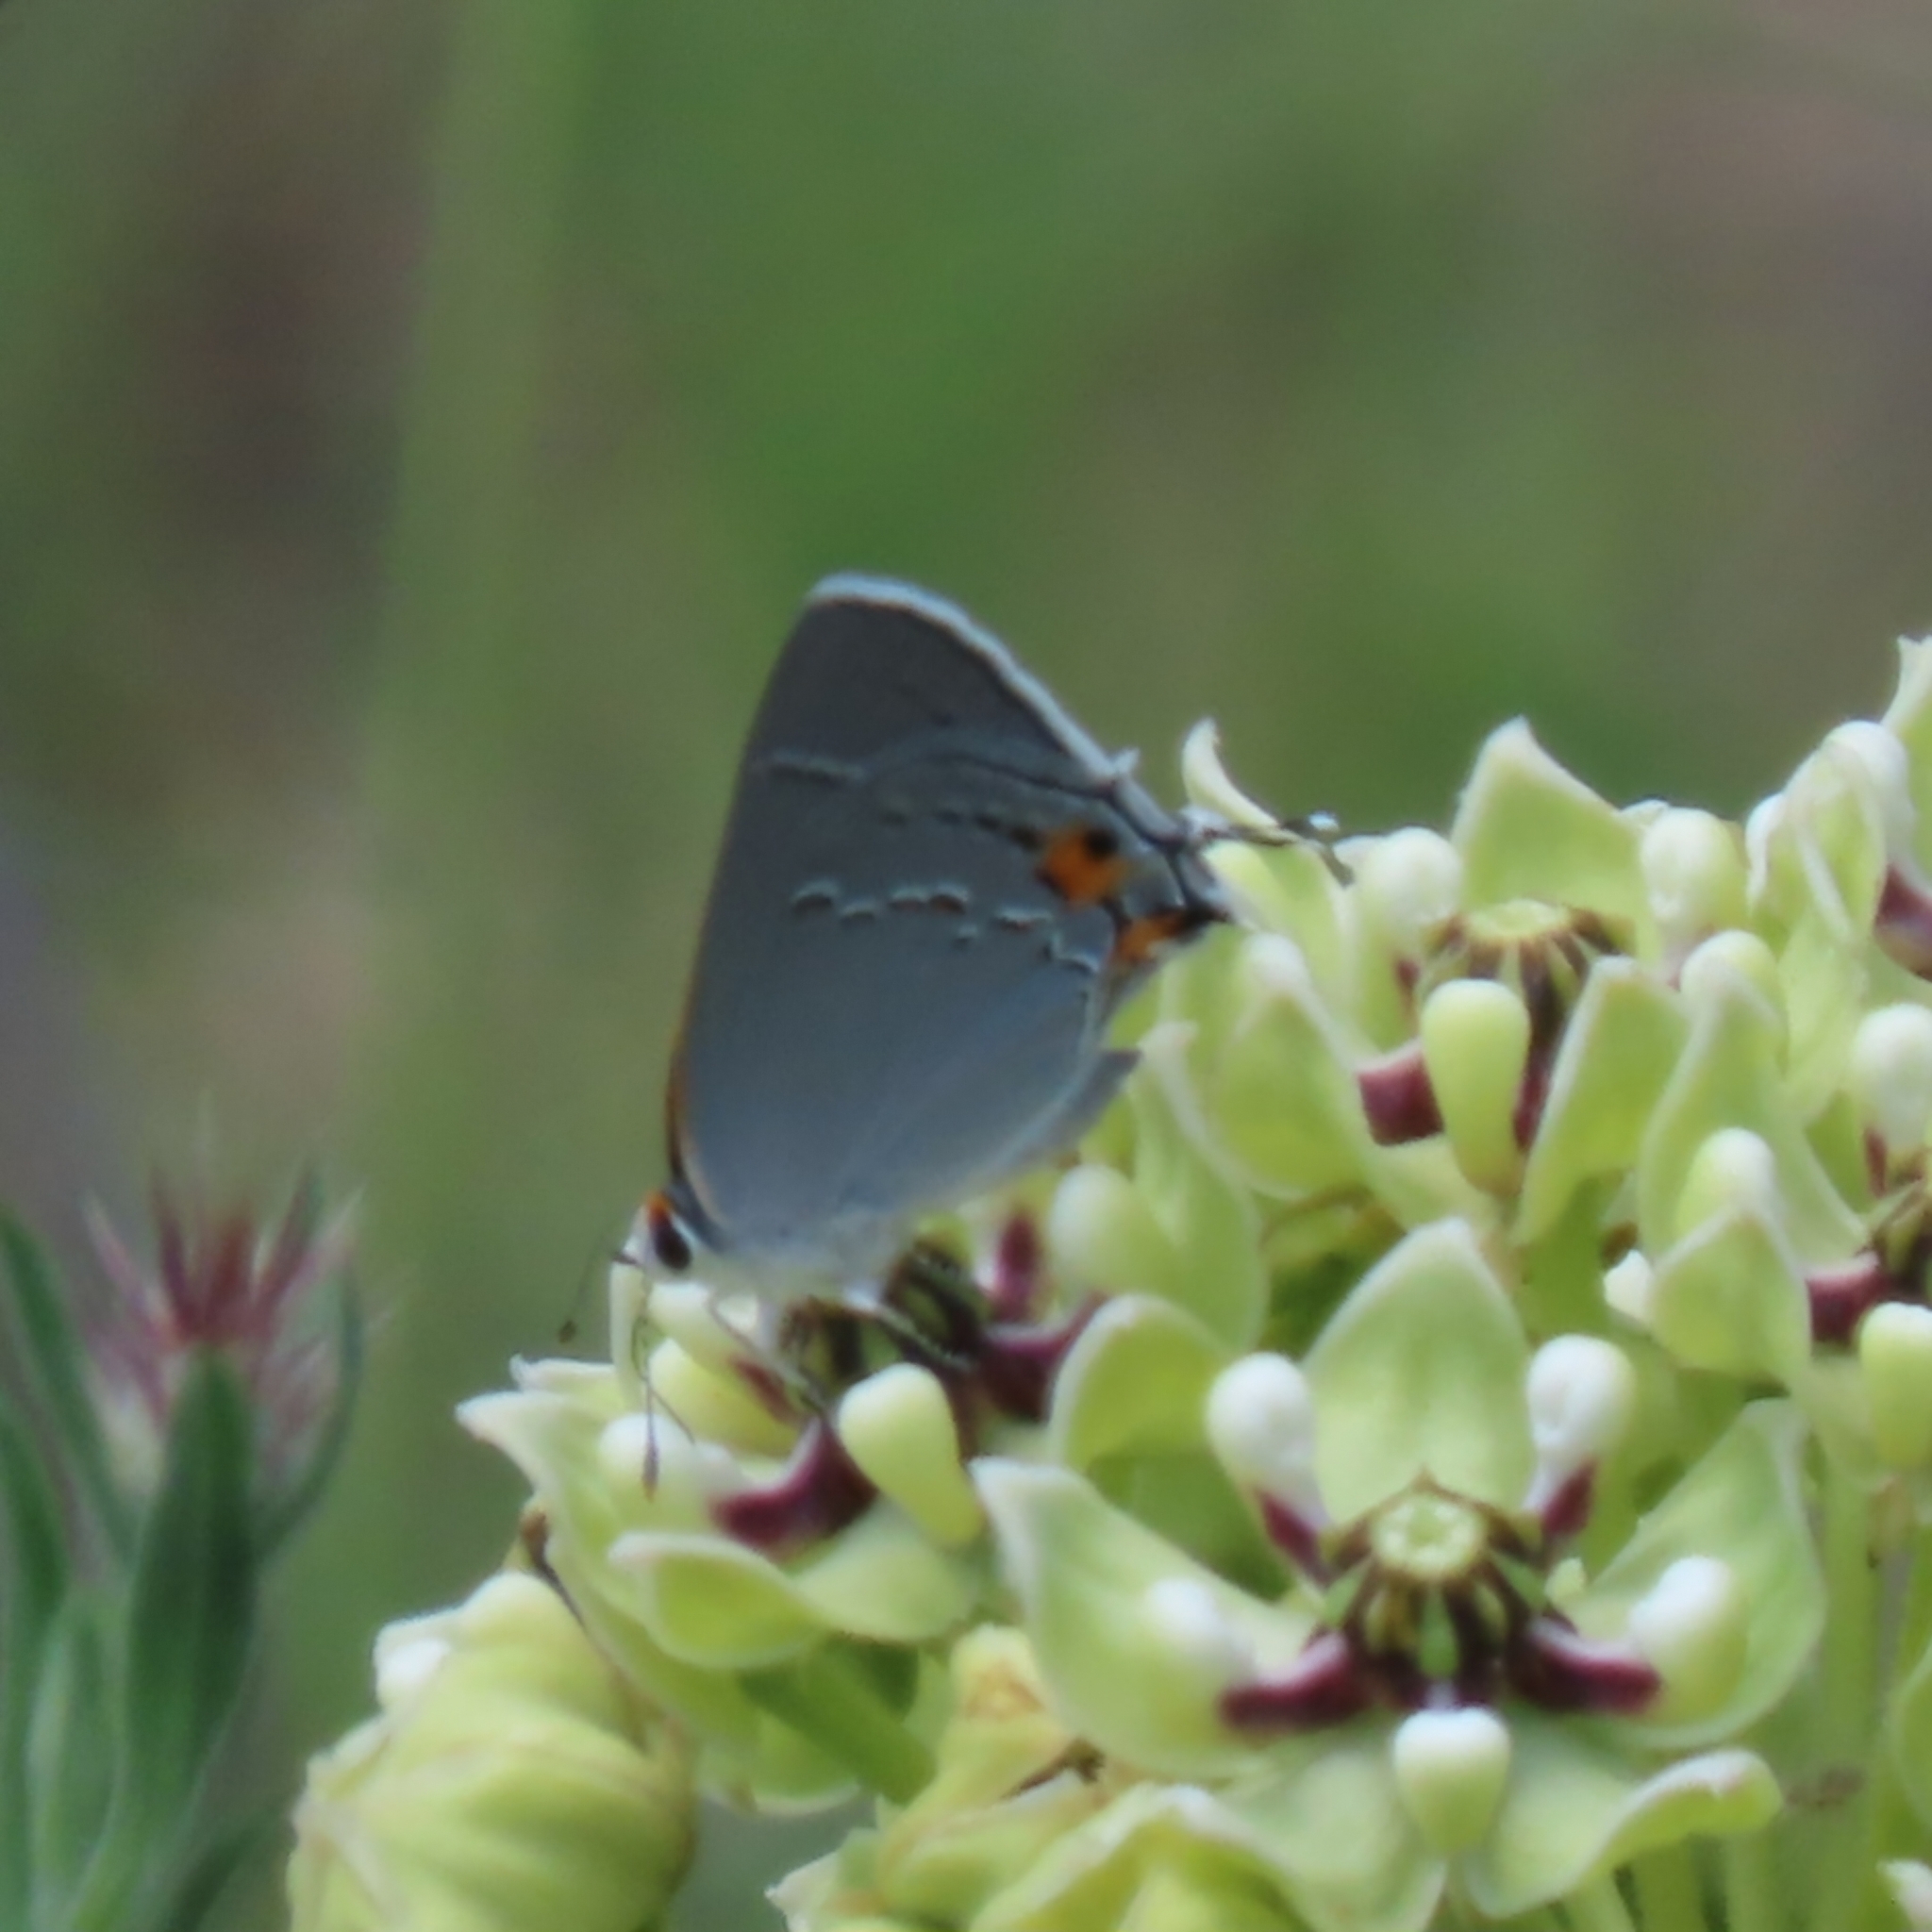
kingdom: Animalia
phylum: Arthropoda
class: Insecta
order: Lepidoptera
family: Lycaenidae
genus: Strymon
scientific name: Strymon melinus
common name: Gray hairstreak
